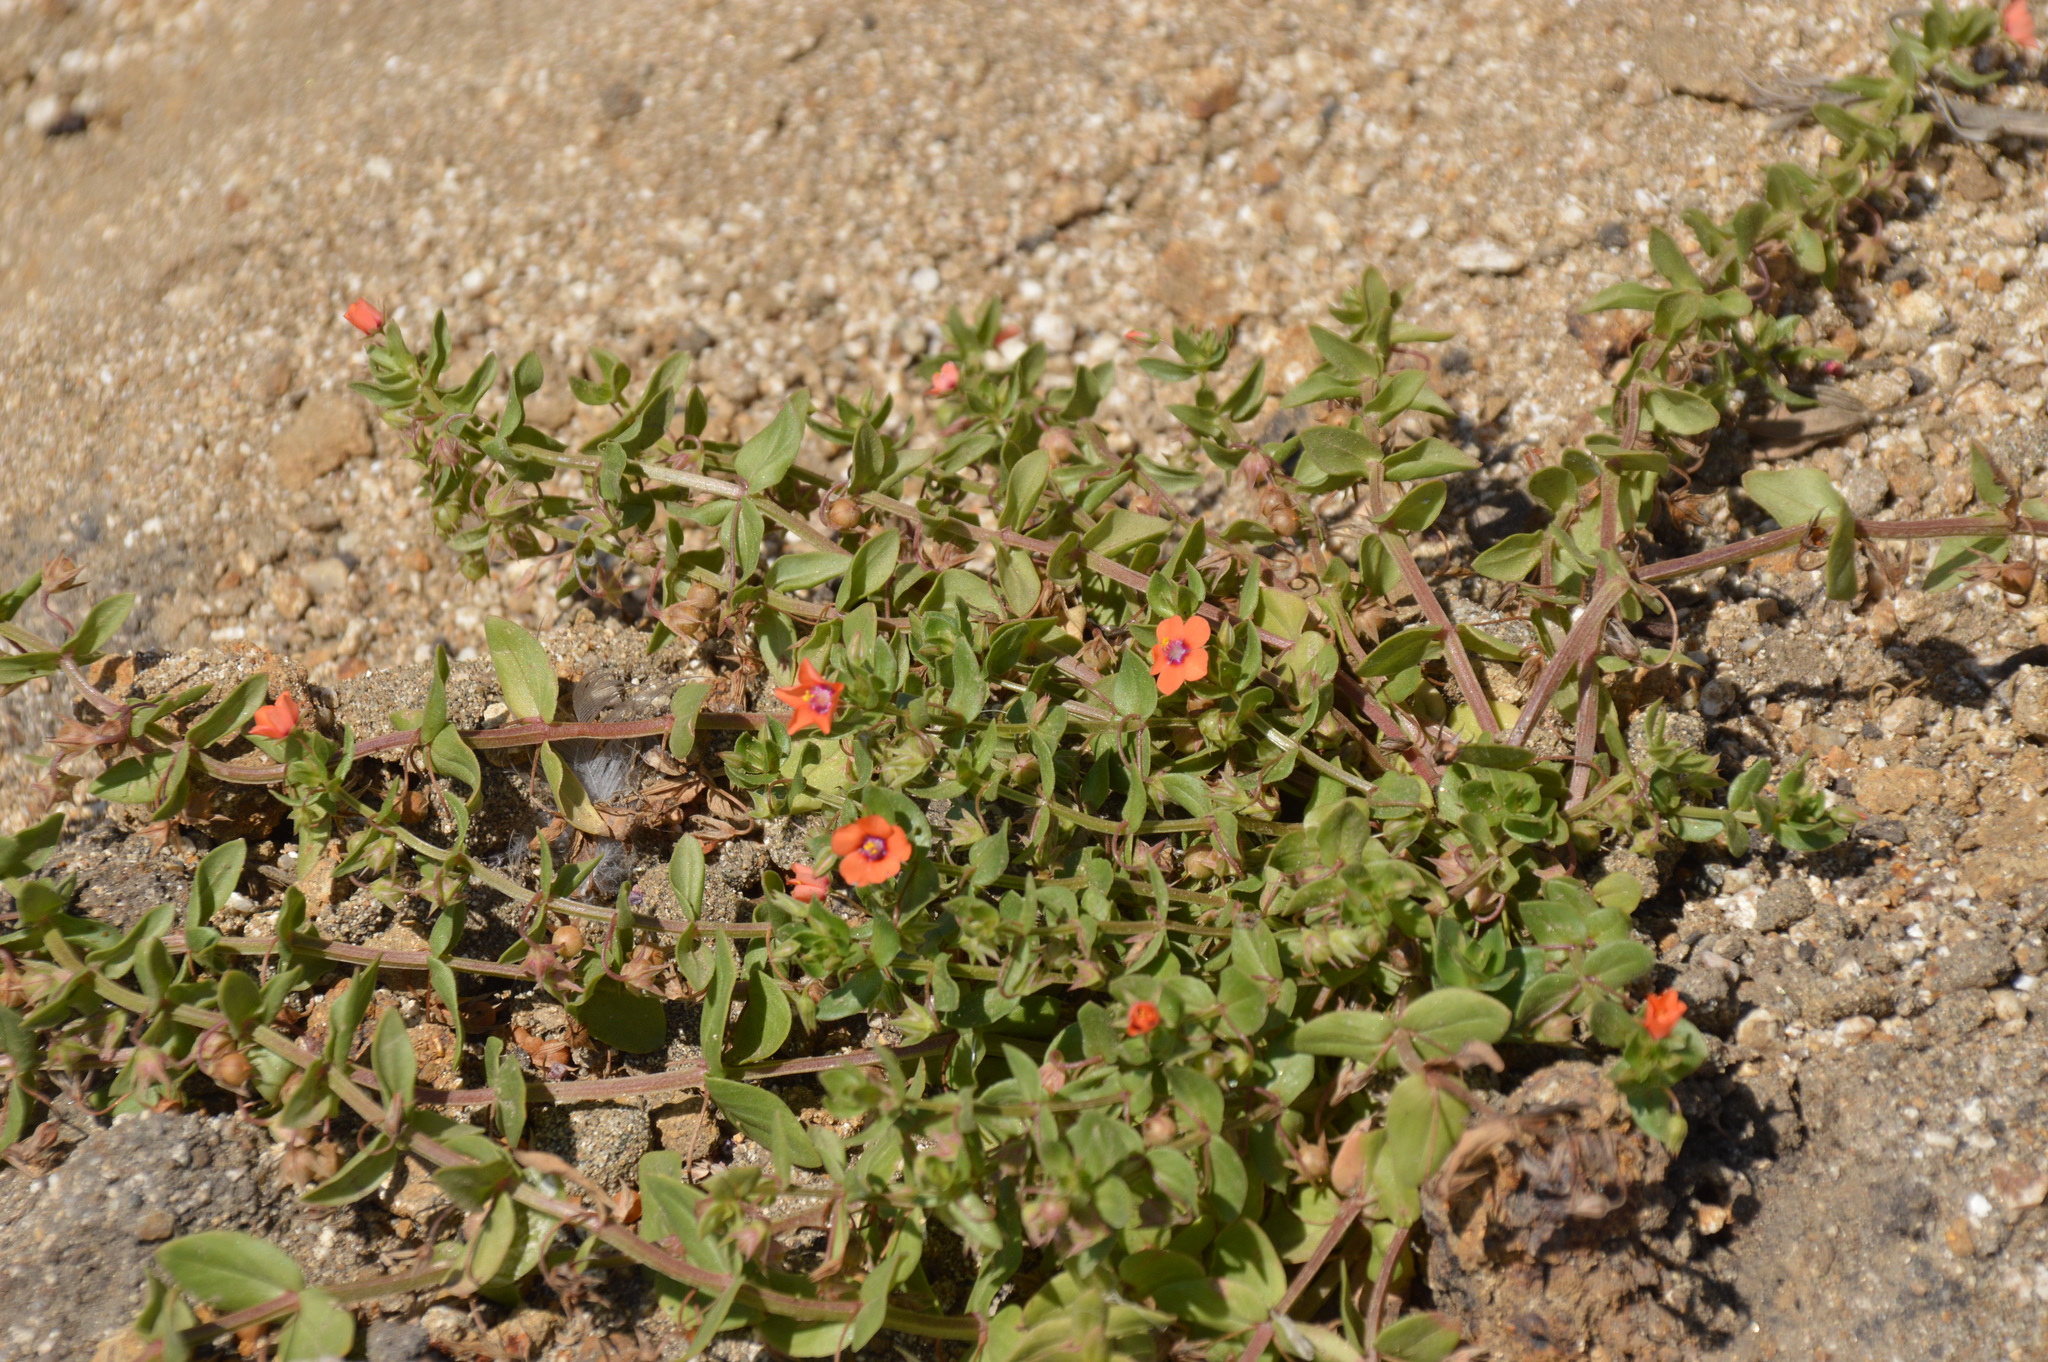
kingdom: Plantae
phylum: Tracheophyta
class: Magnoliopsida
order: Ericales
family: Primulaceae
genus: Lysimachia
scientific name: Lysimachia arvensis
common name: Scarlet pimpernel
